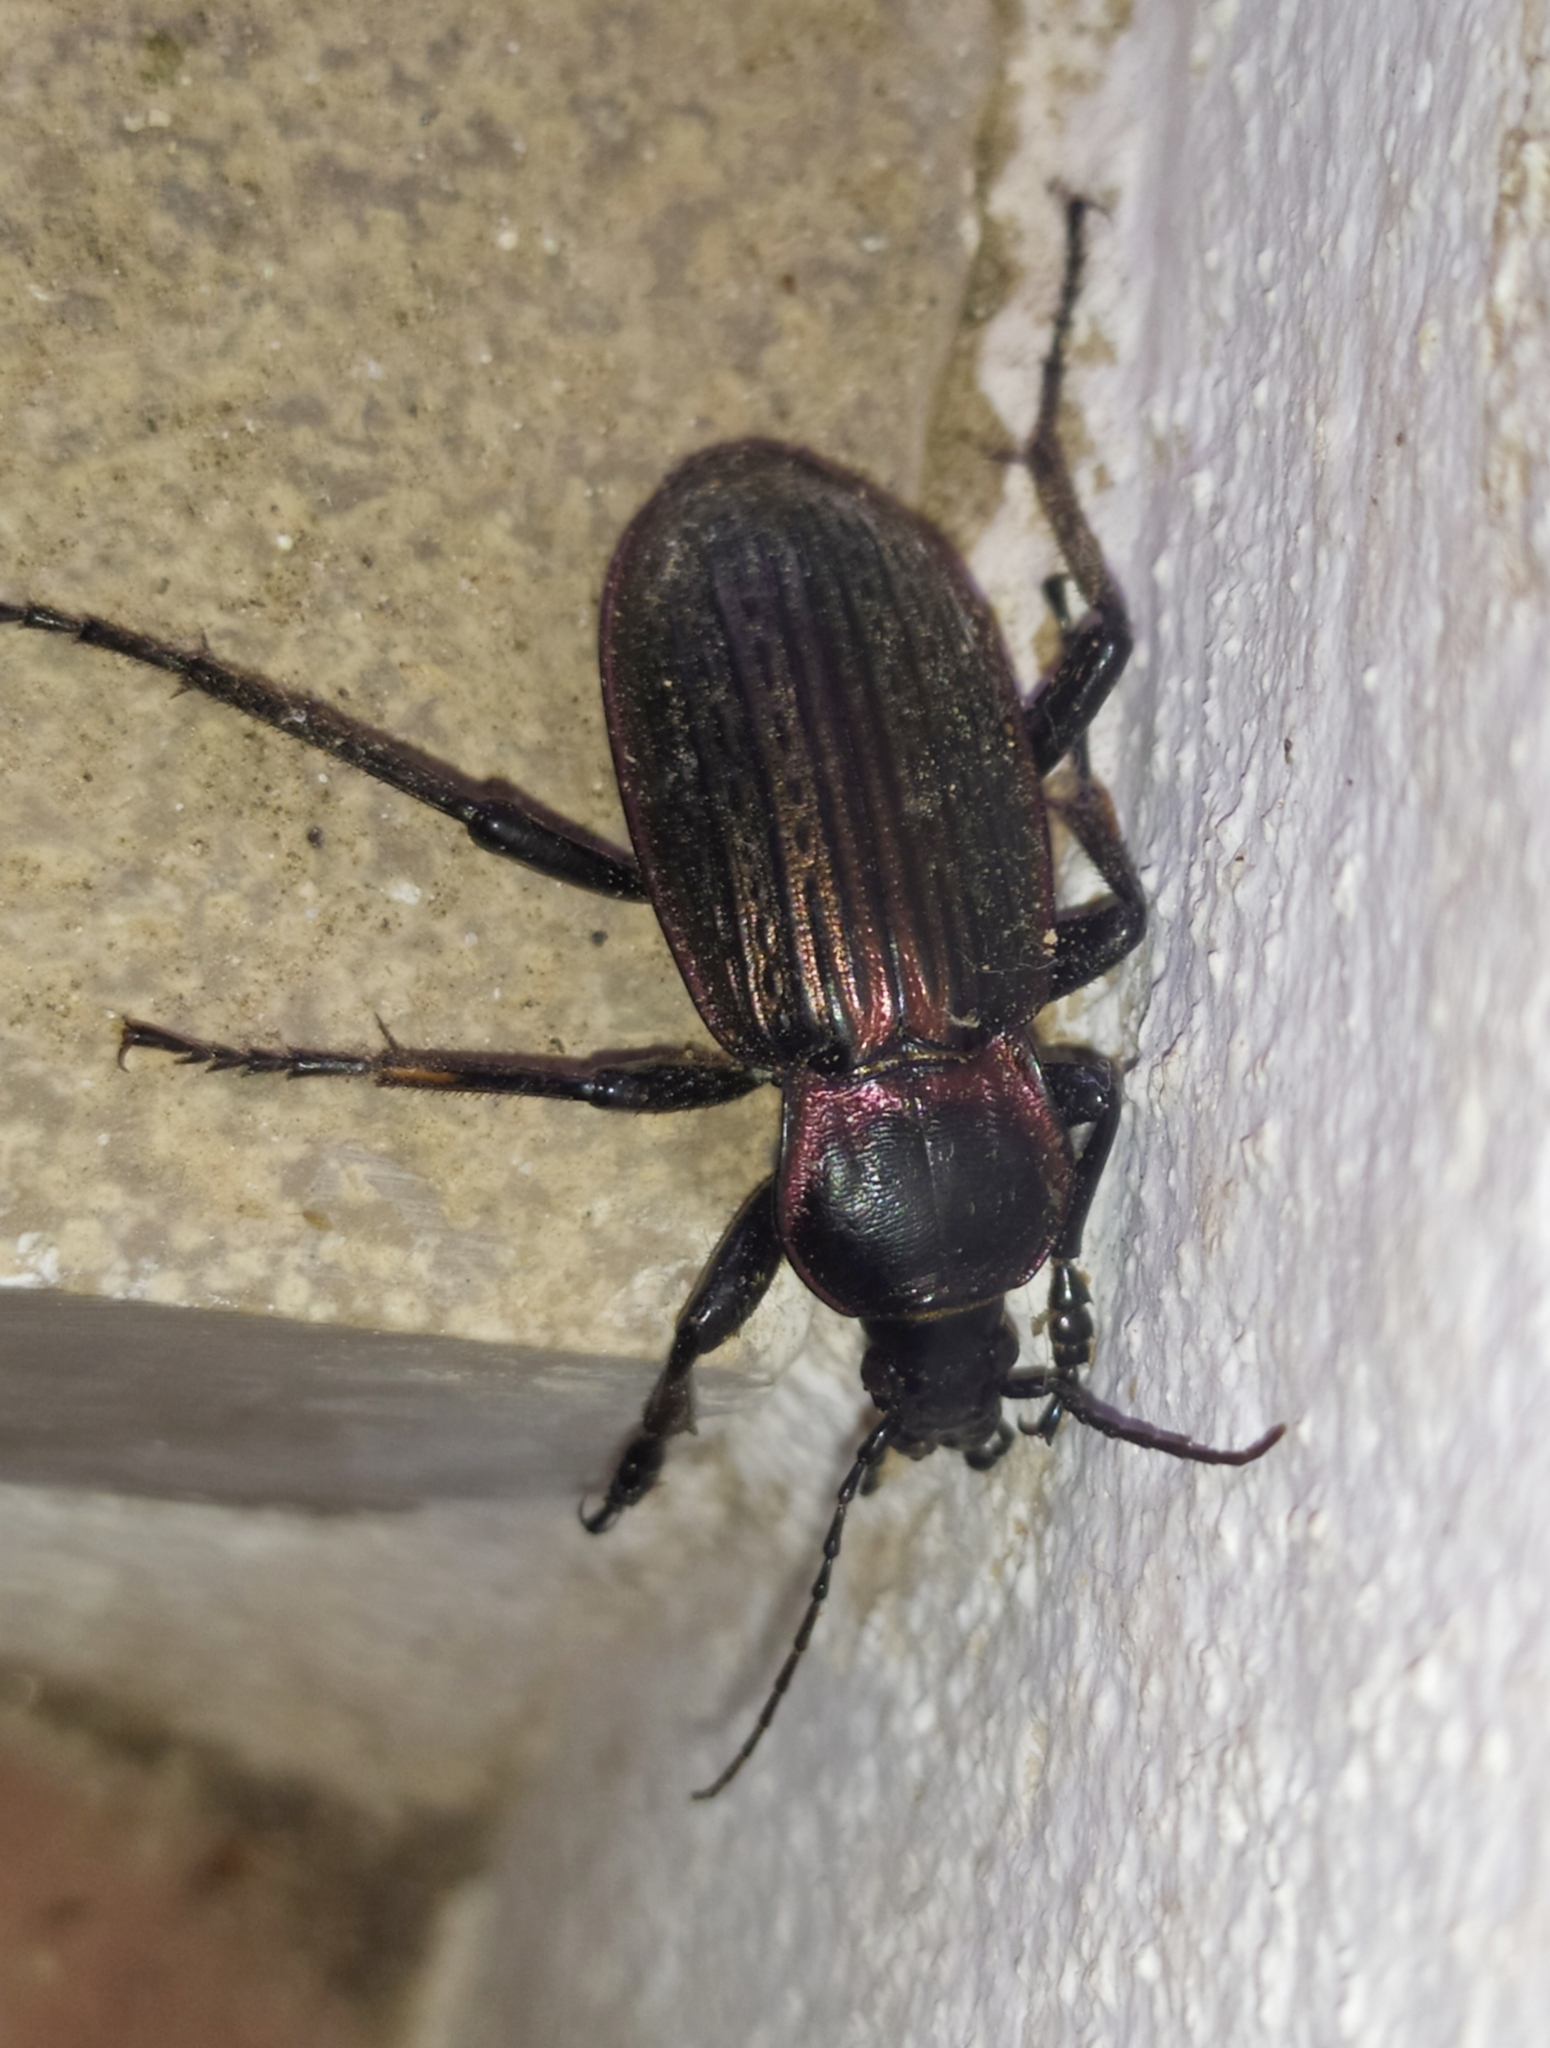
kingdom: Animalia
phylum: Arthropoda
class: Insecta
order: Coleoptera
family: Carabidae
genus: Carabus
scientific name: Carabus morbillosus
